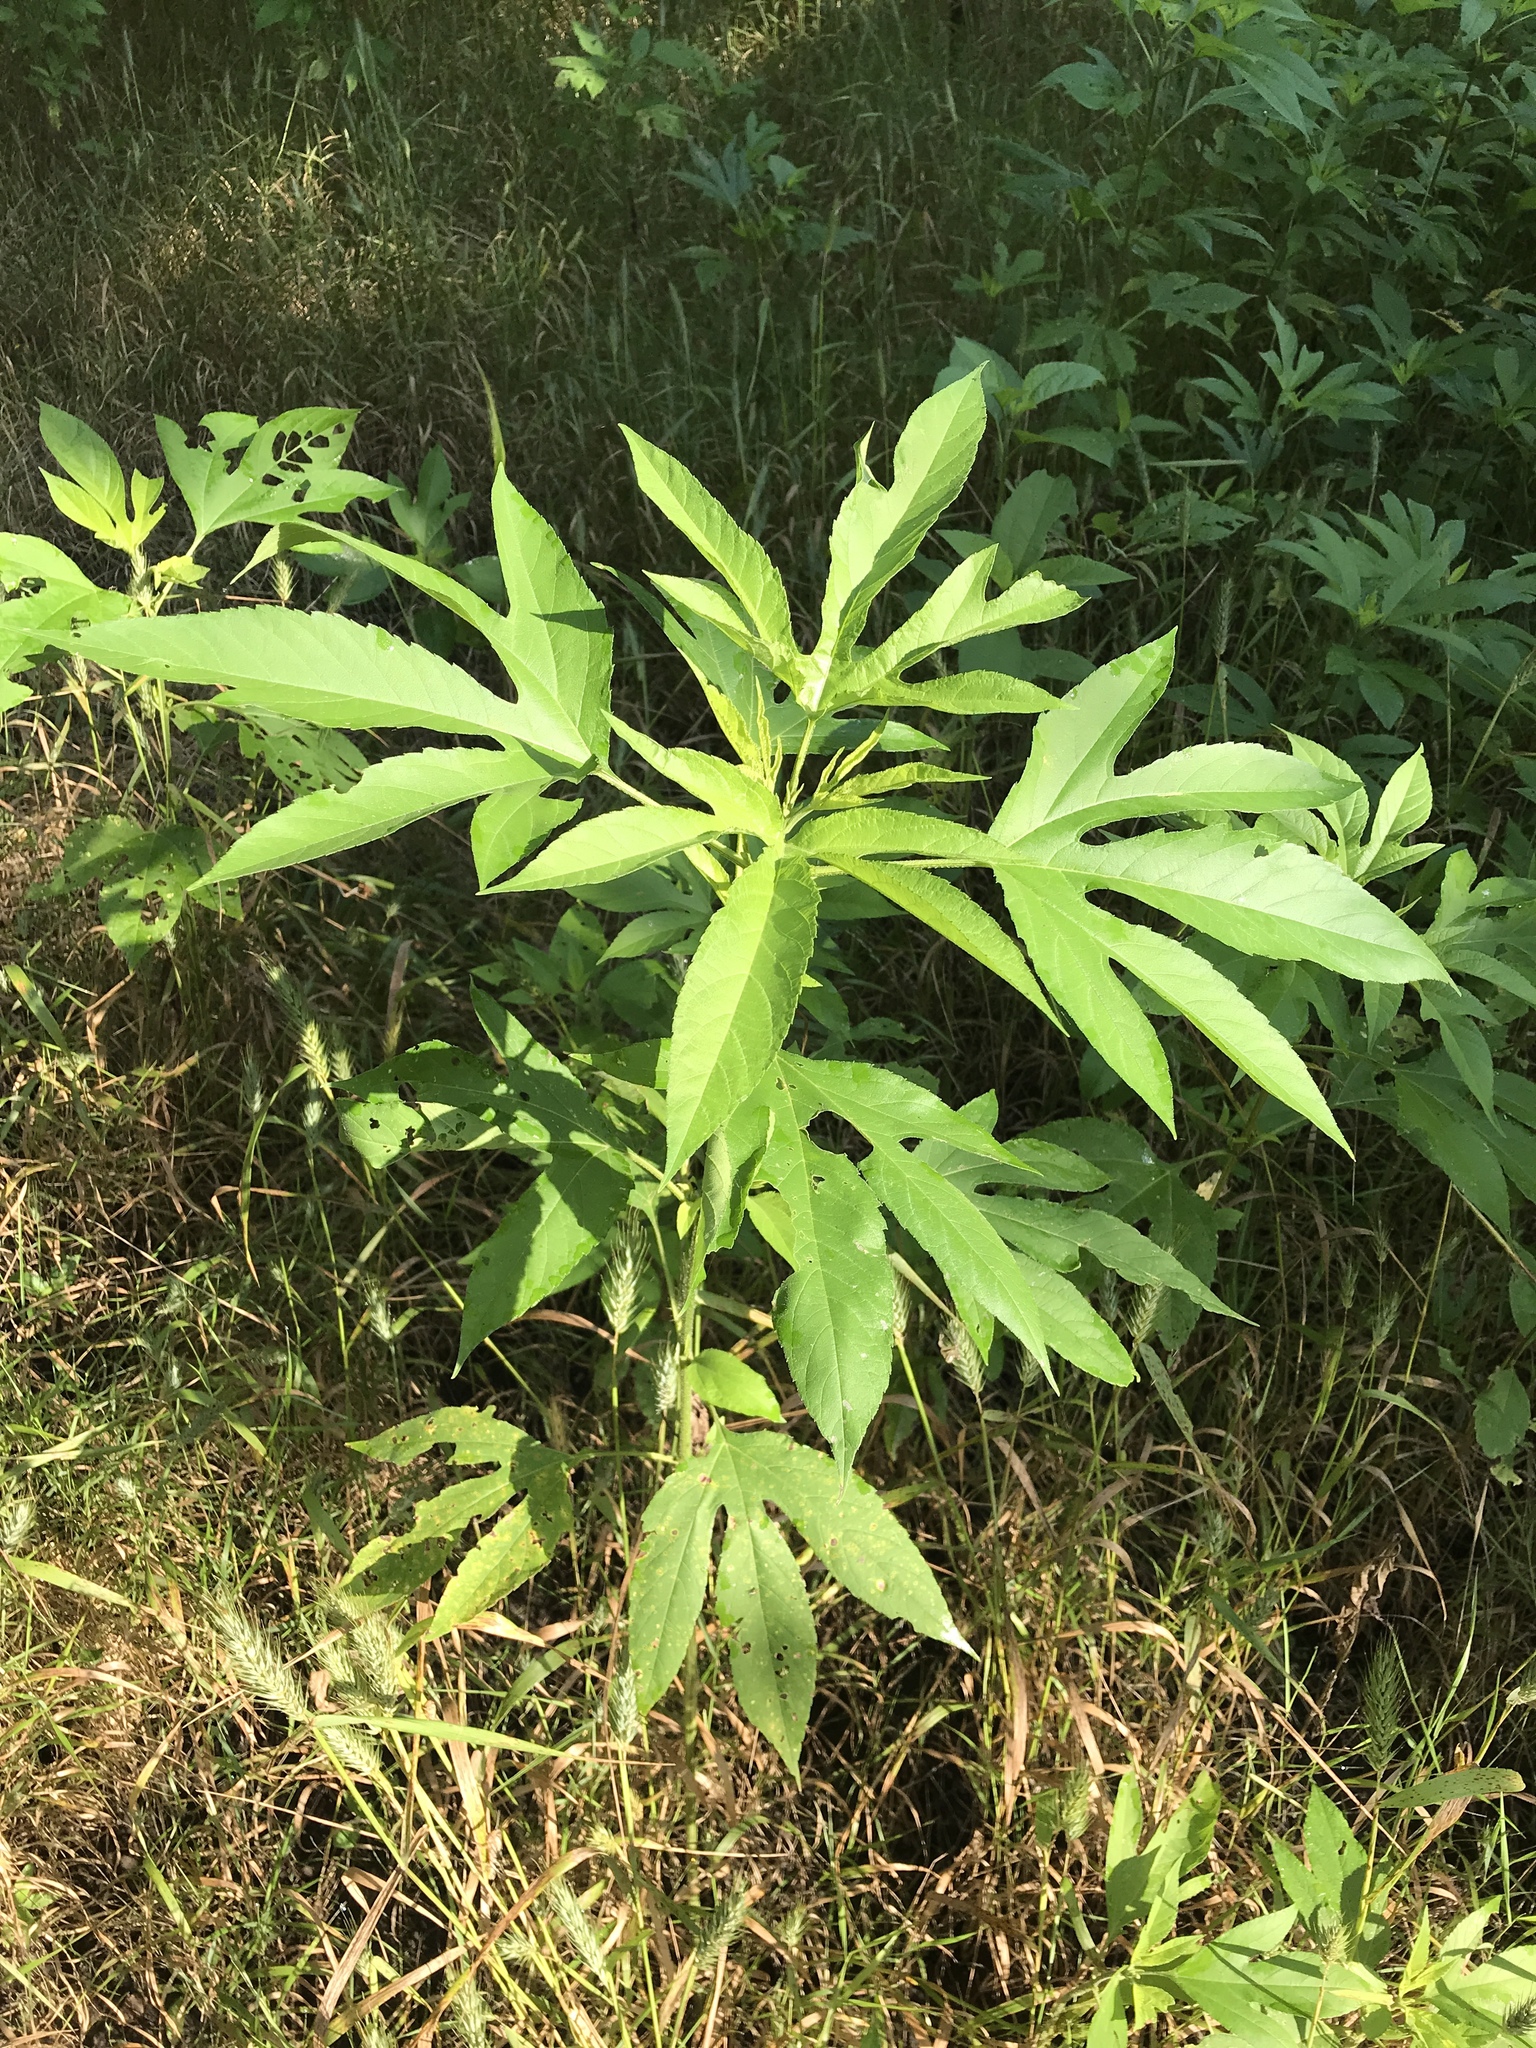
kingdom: Plantae
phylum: Tracheophyta
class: Magnoliopsida
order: Asterales
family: Asteraceae
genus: Ambrosia
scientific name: Ambrosia trifida
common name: Giant ragweed
